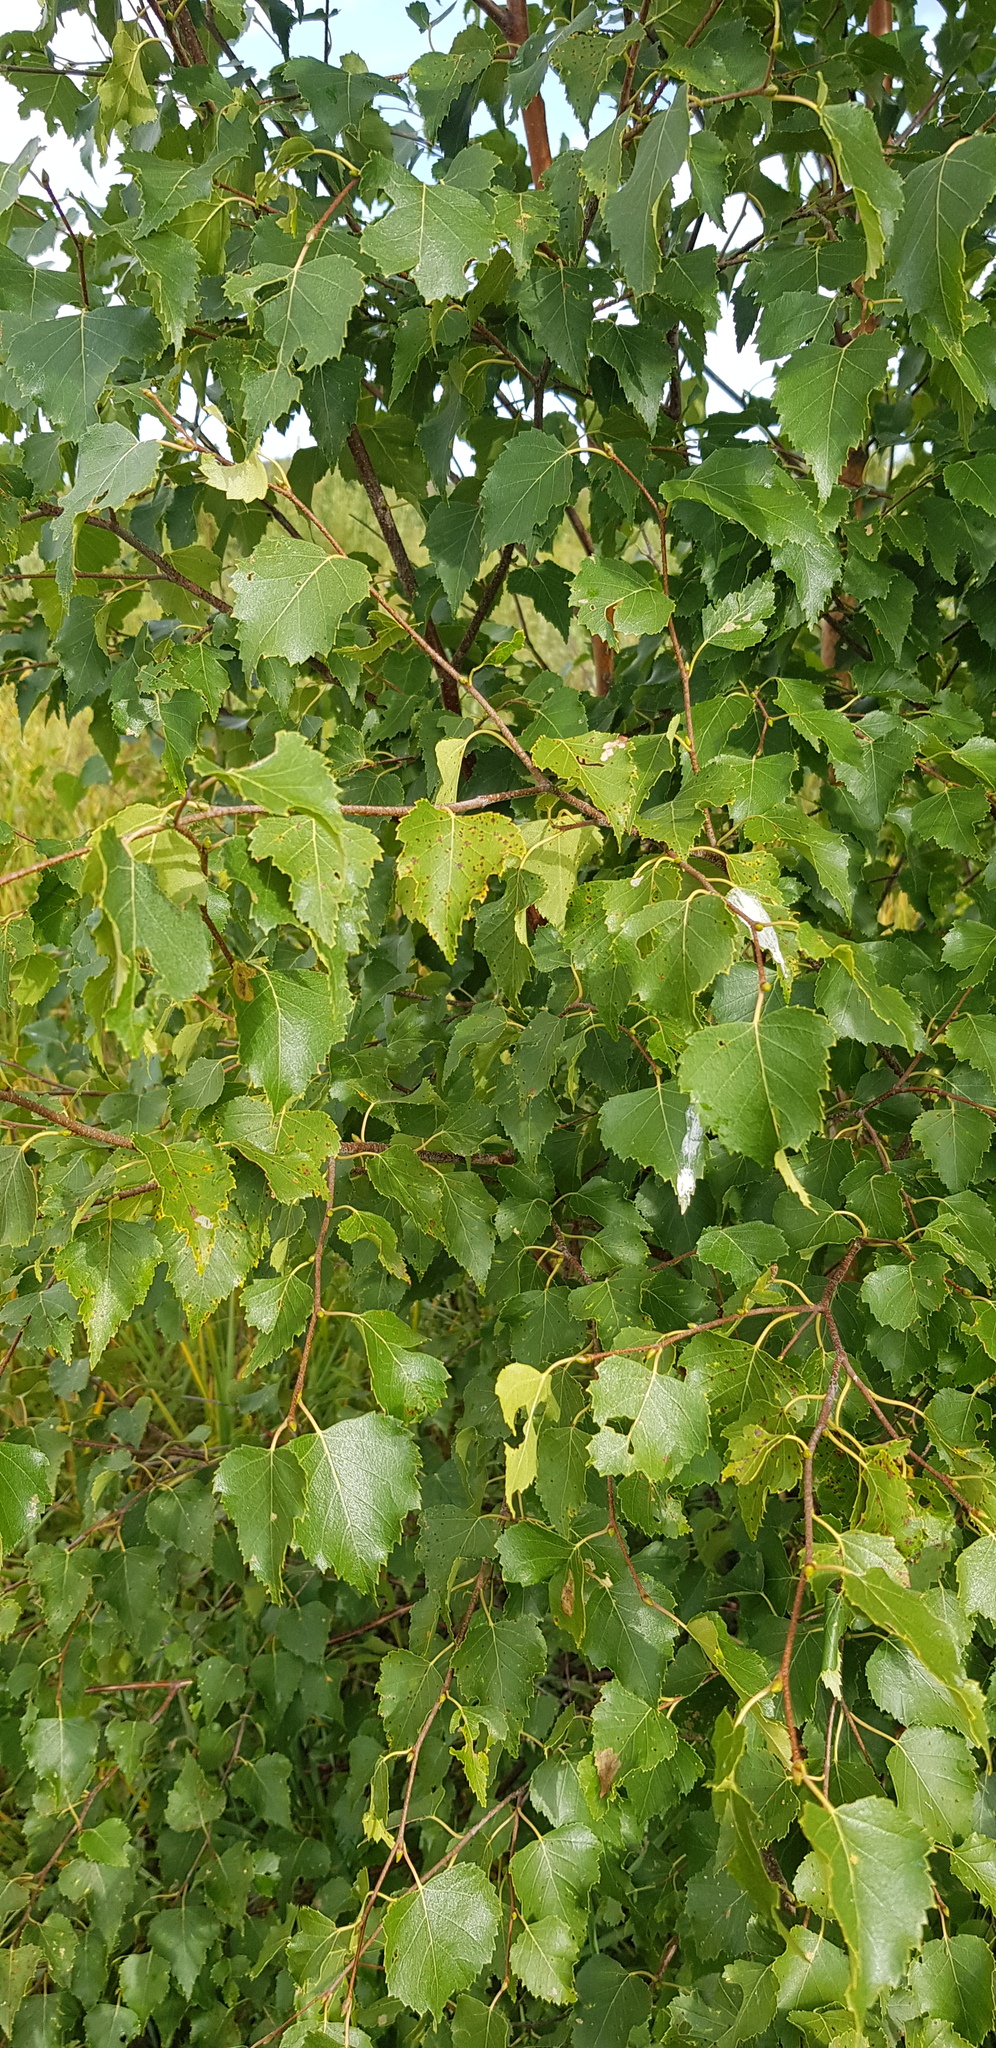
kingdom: Plantae
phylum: Tracheophyta
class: Magnoliopsida
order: Fagales
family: Betulaceae
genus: Betula
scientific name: Betula pendula
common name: Silver birch
